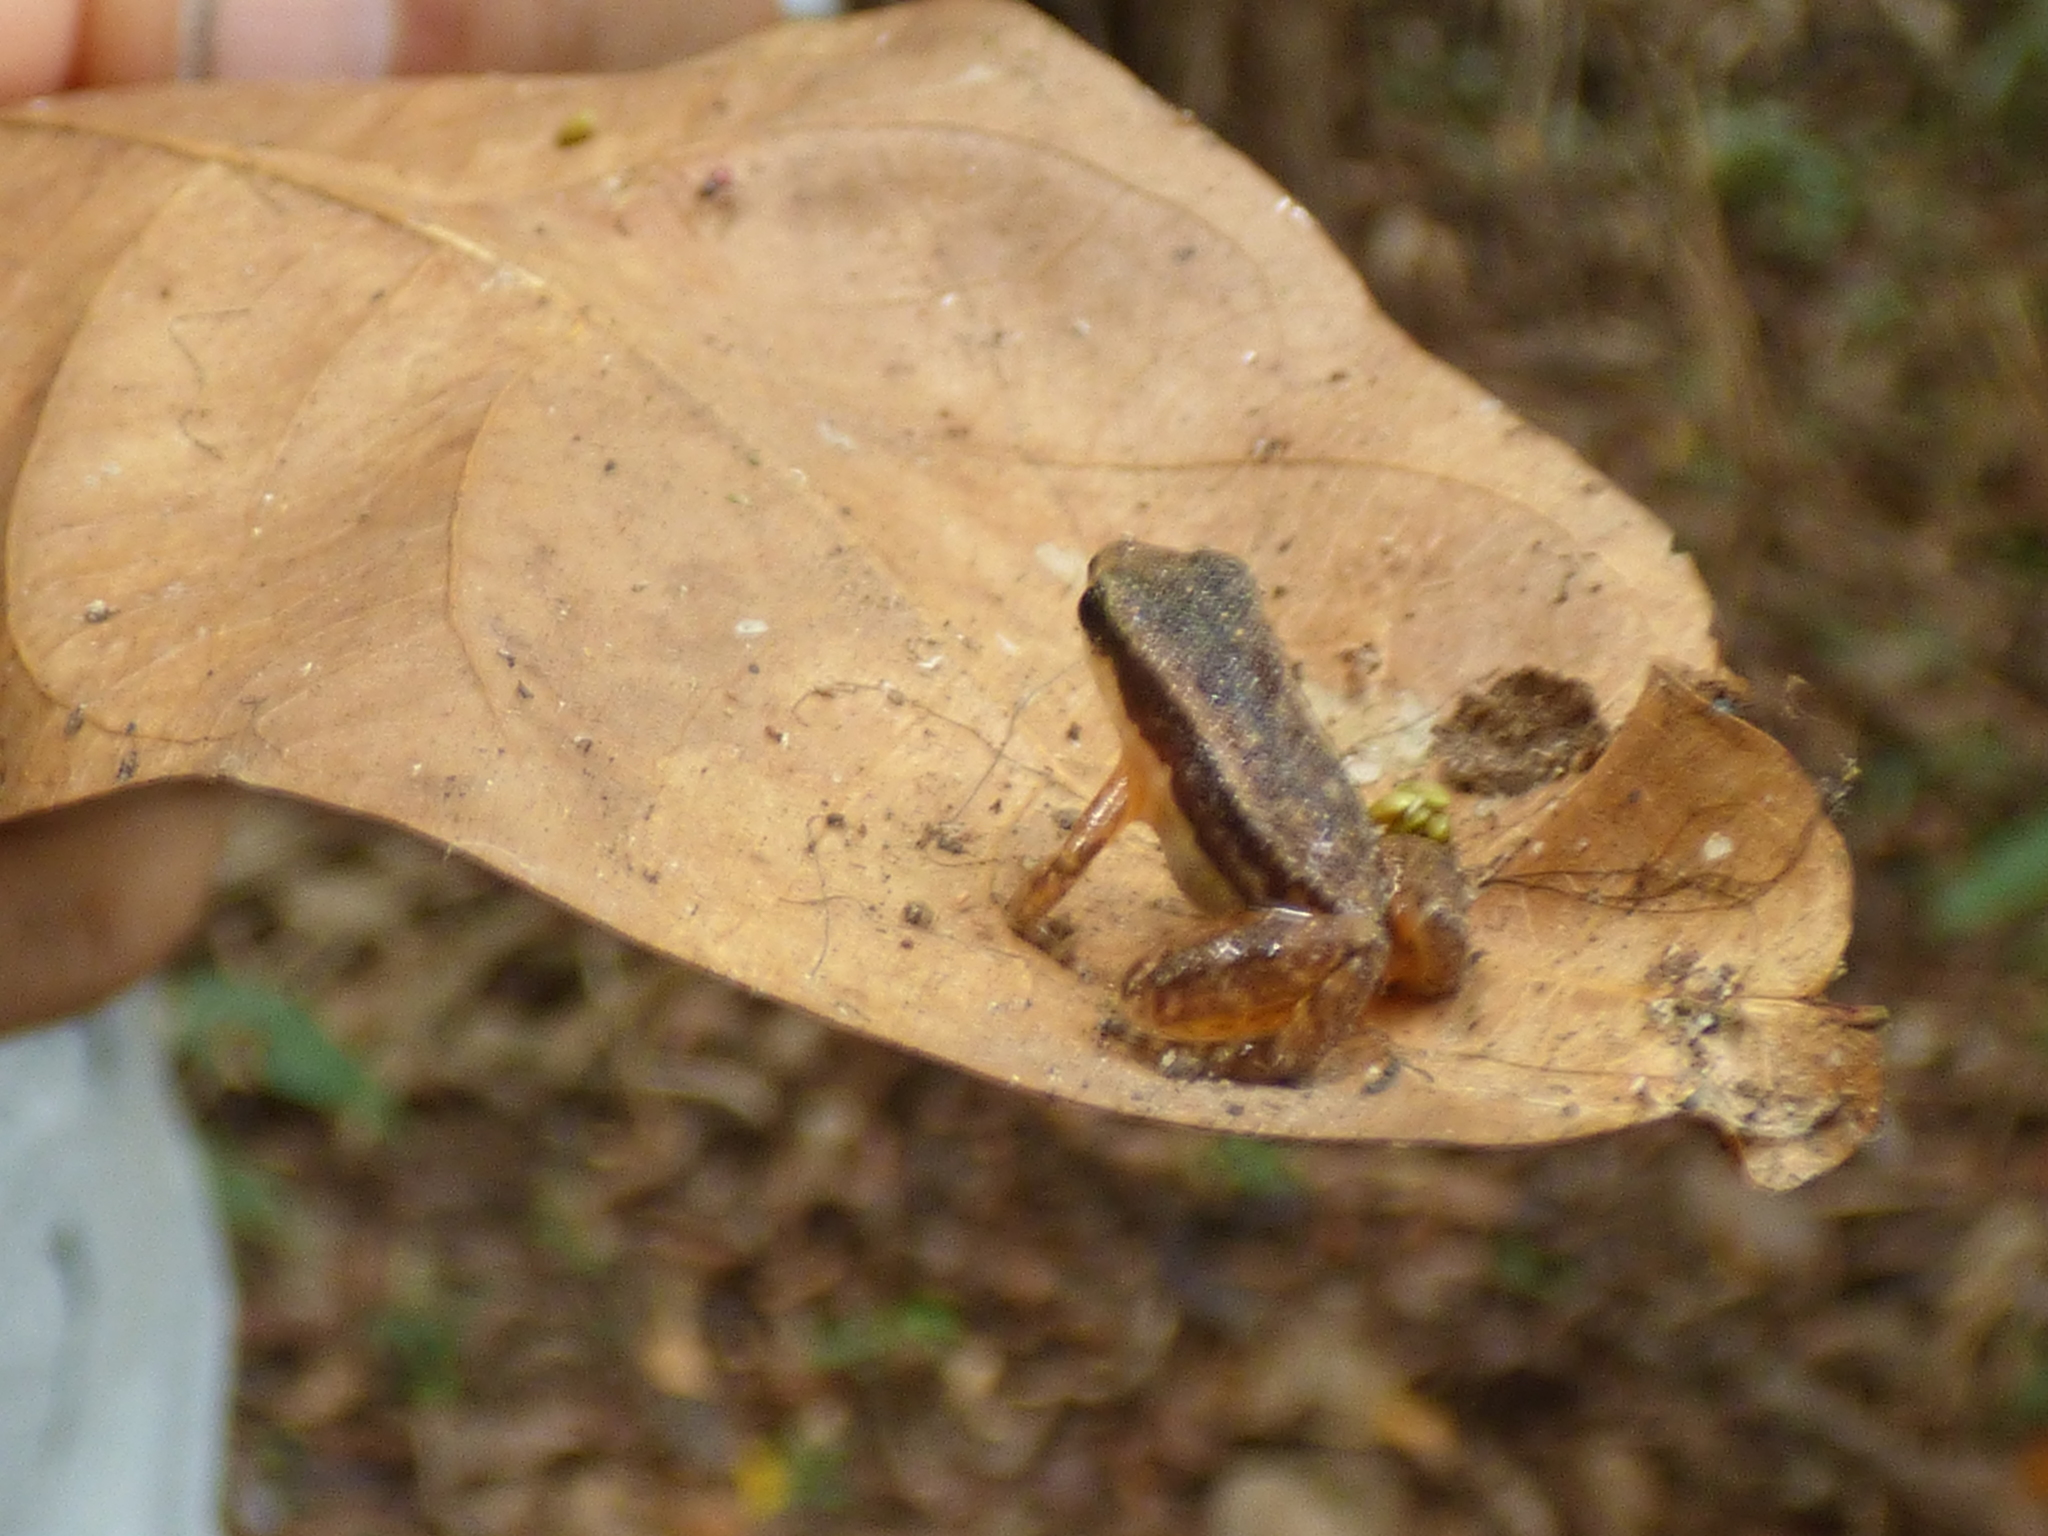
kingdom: Animalia
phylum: Chordata
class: Amphibia
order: Anura
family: Aromobatidae
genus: Allobates
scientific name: Allobates niputidea
